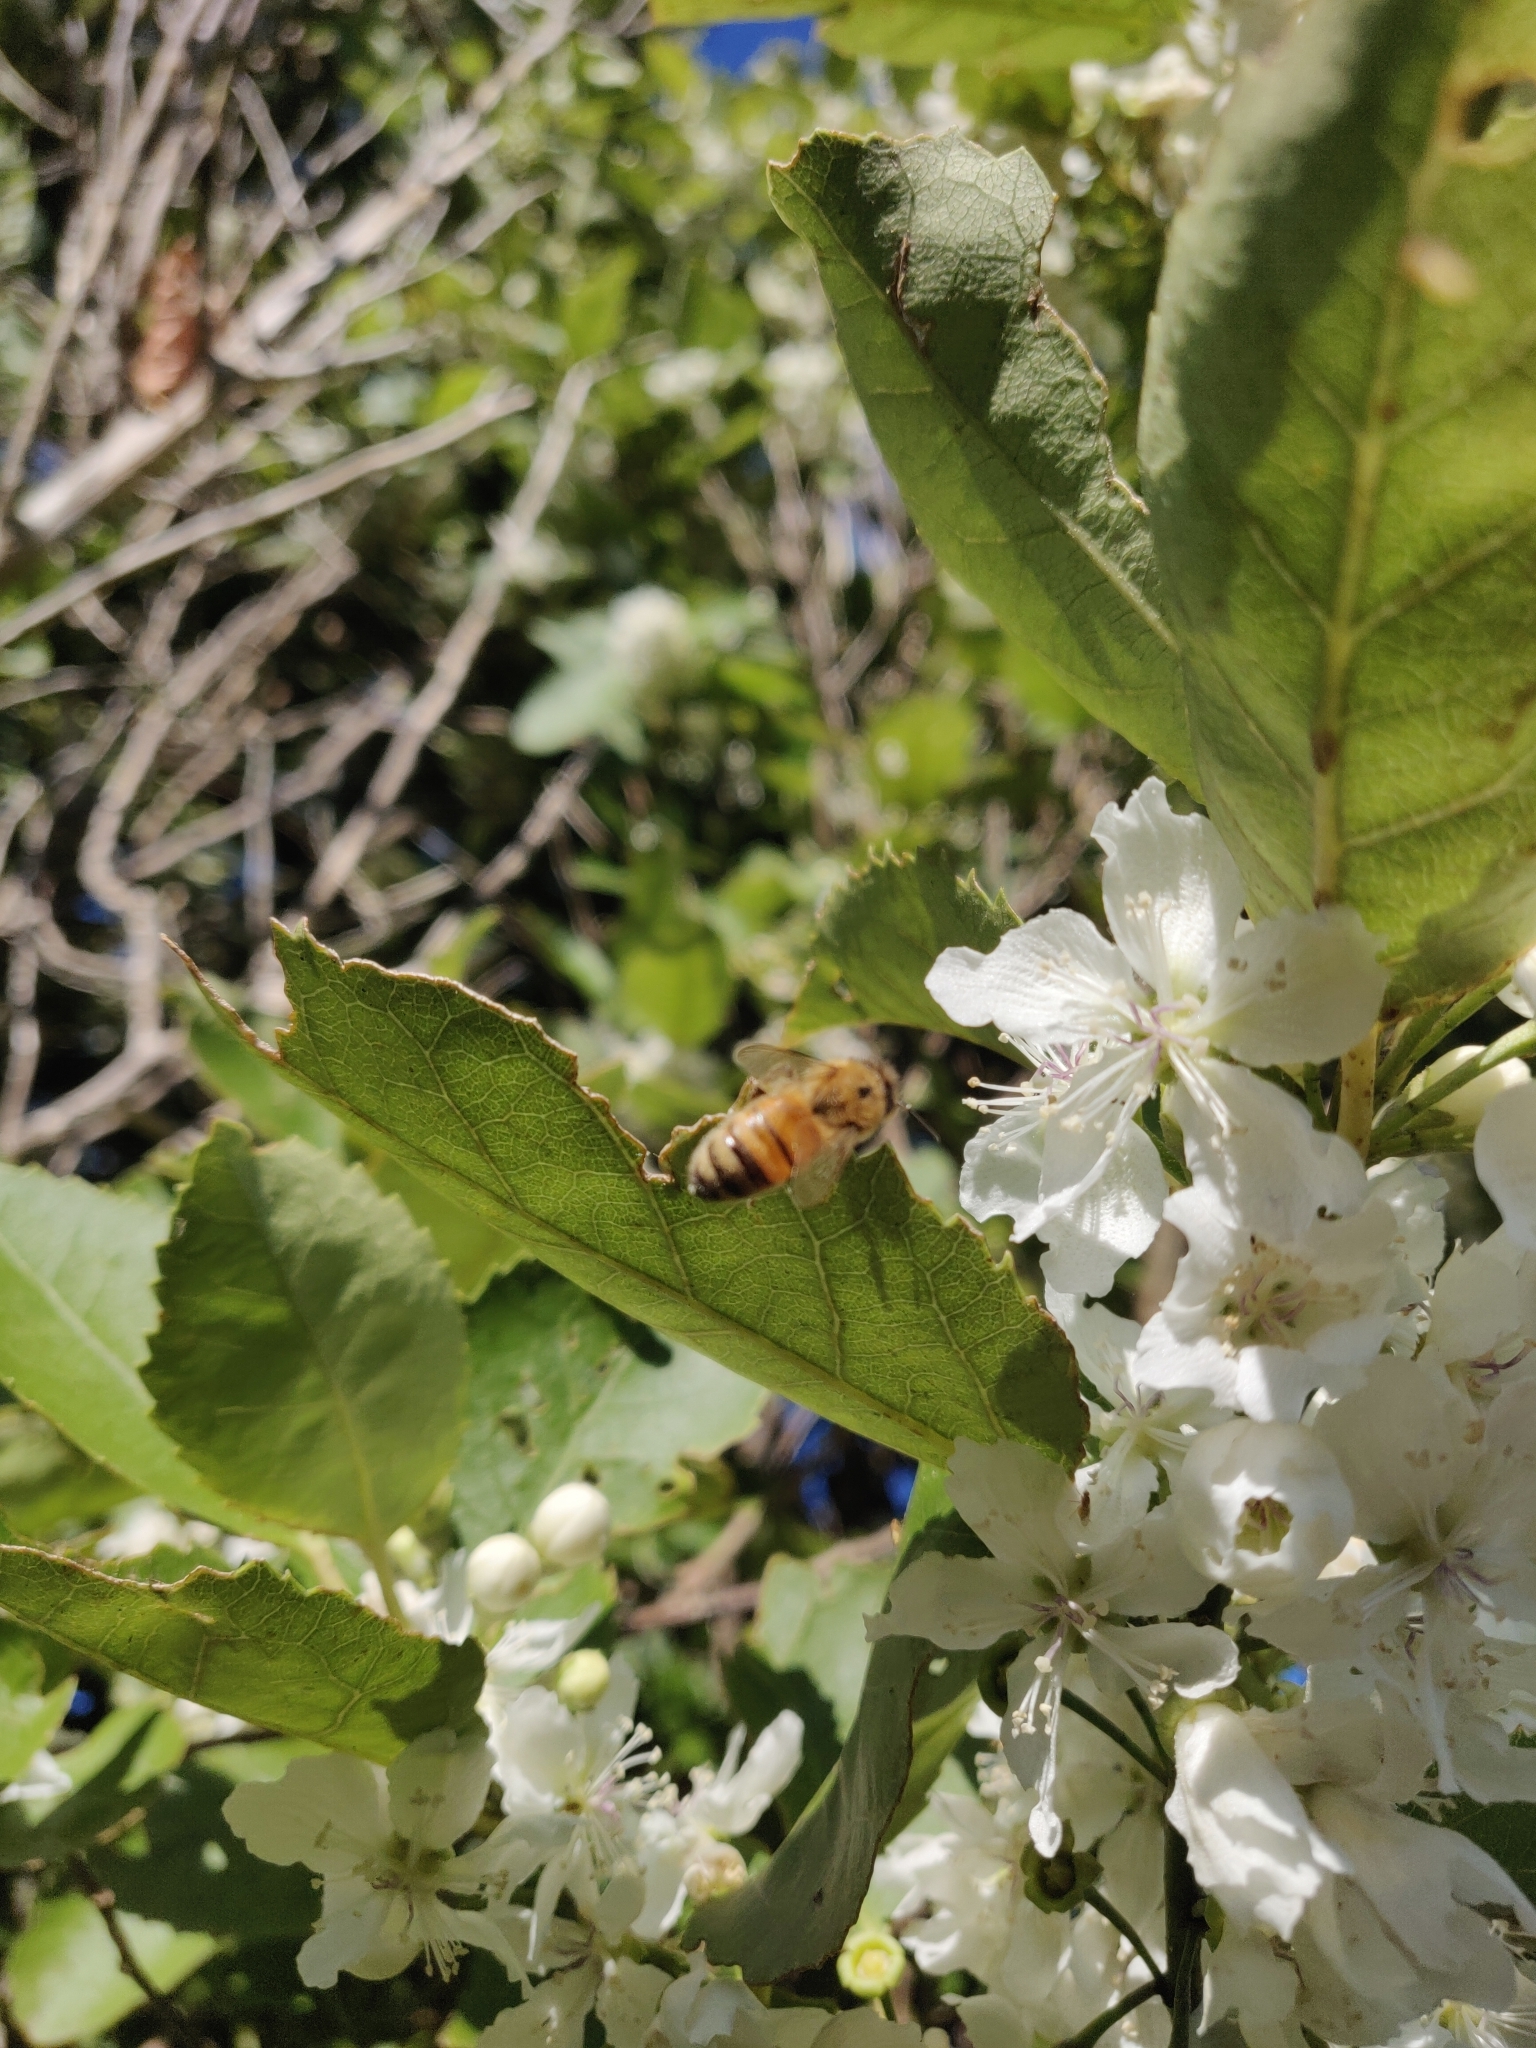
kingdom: Animalia
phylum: Arthropoda
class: Insecta
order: Hymenoptera
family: Apidae
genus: Apis
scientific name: Apis mellifera
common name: Honey bee
